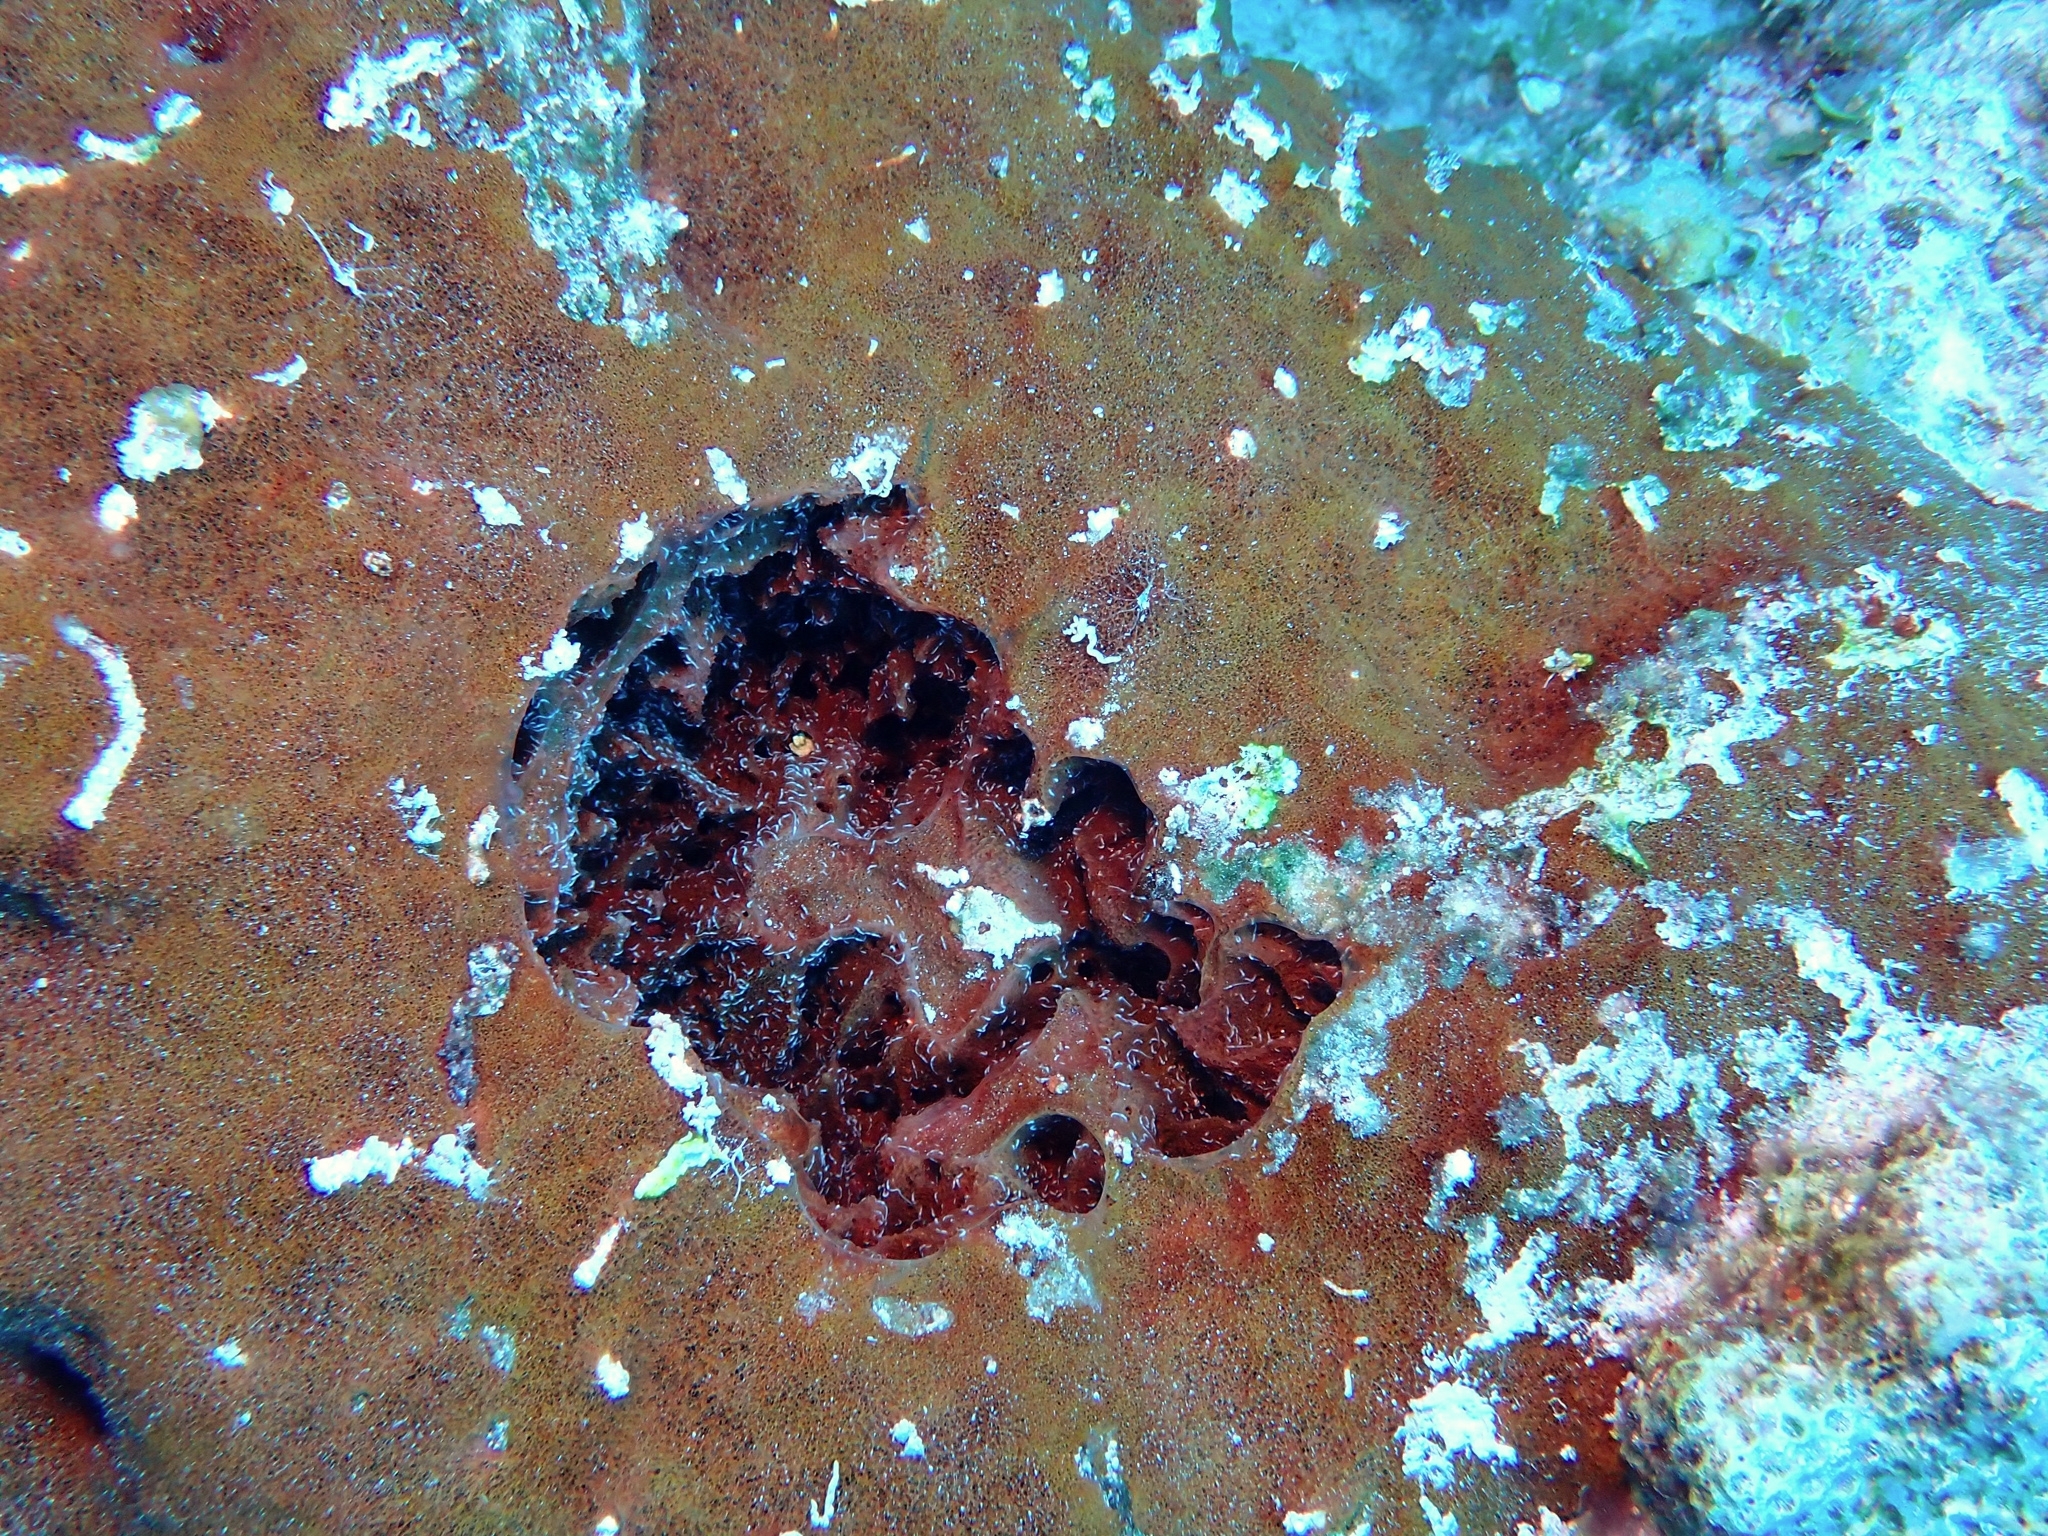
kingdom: Animalia
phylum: Porifera
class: Demospongiae
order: Biemnida
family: Biemnidae
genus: Neofibularia
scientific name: Neofibularia nolitangere
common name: Do-not-touch-me sponge
